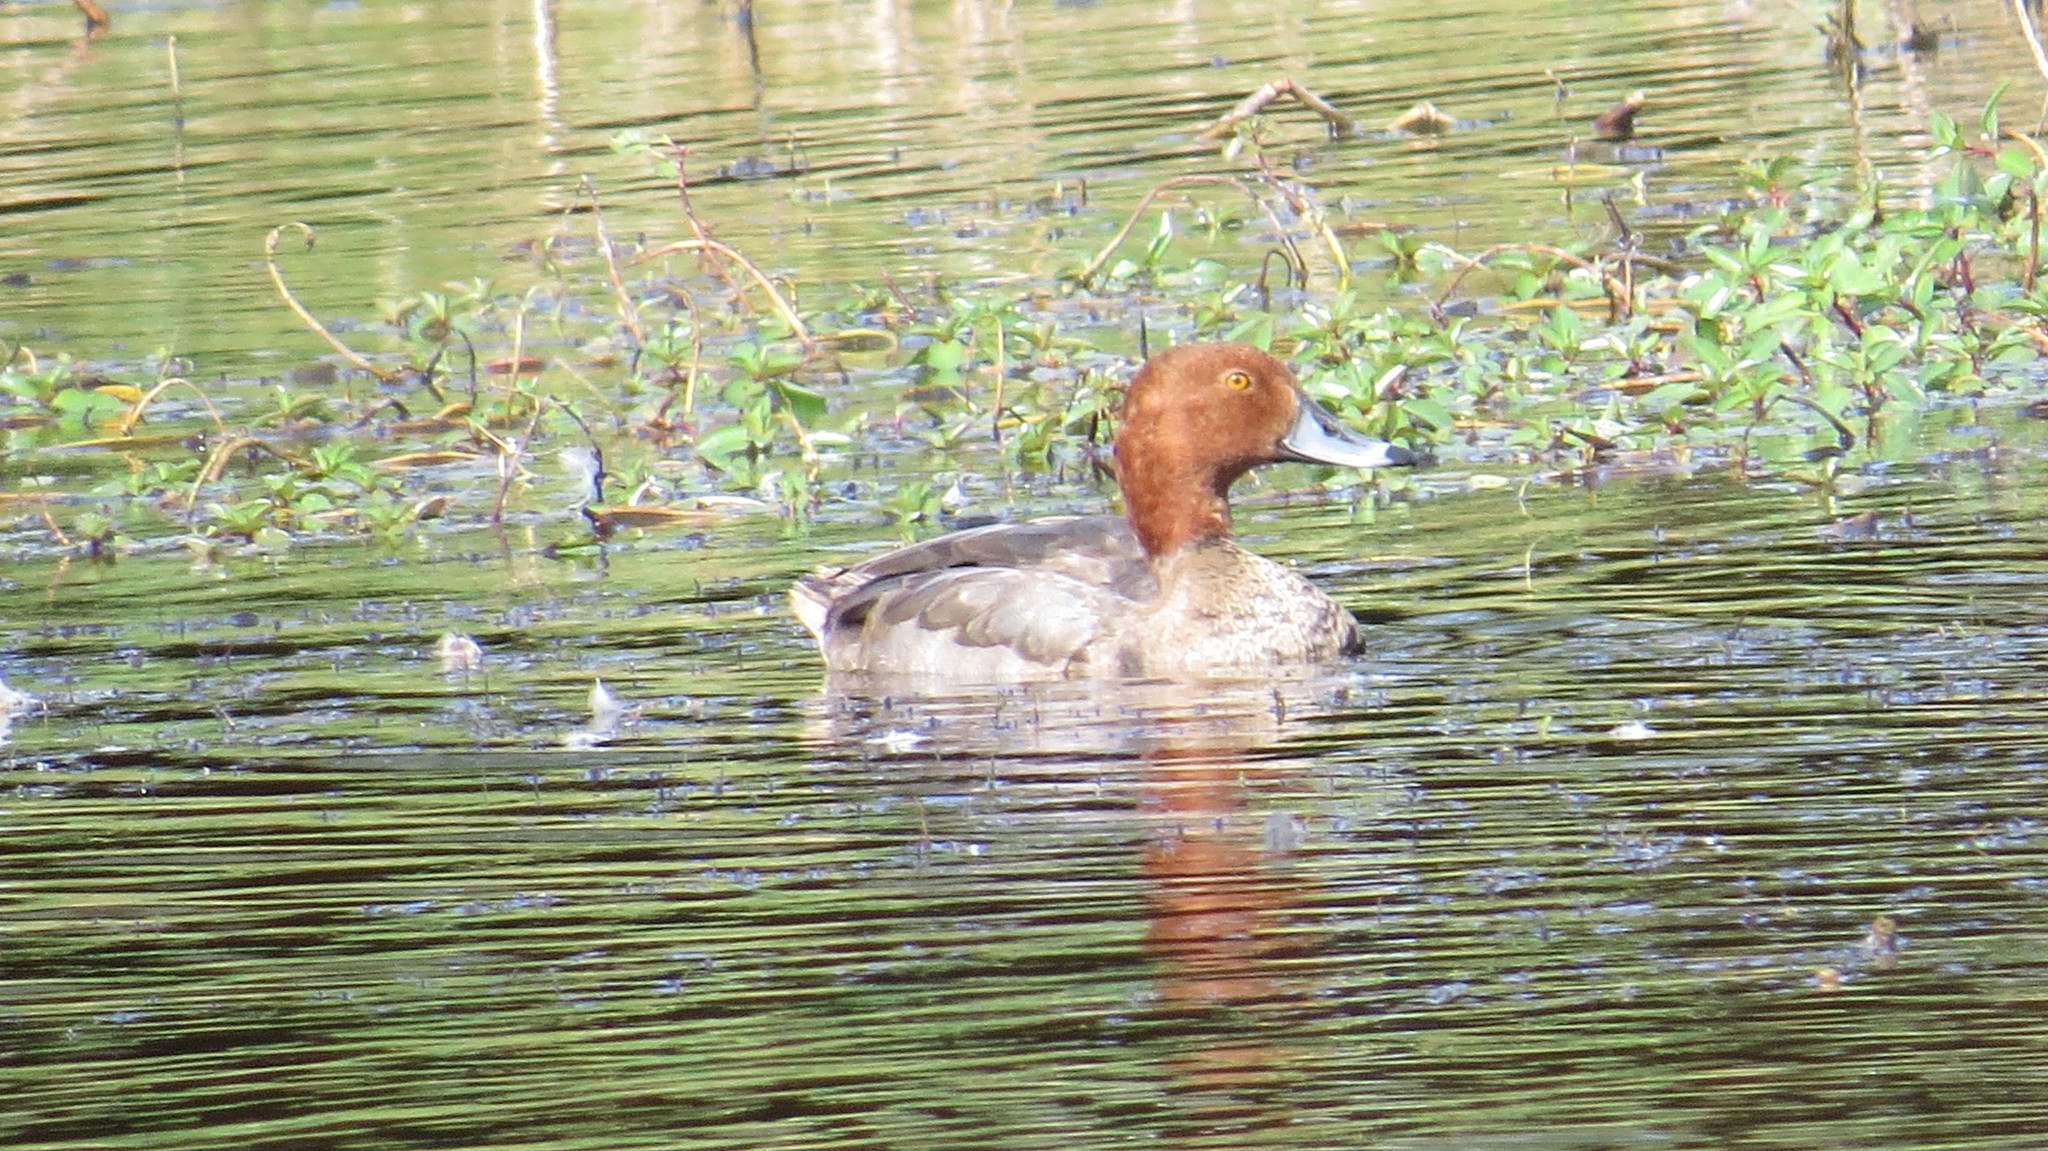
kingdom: Animalia
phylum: Chordata
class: Aves
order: Anseriformes
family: Anatidae
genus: Aythya
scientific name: Aythya americana
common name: Redhead
